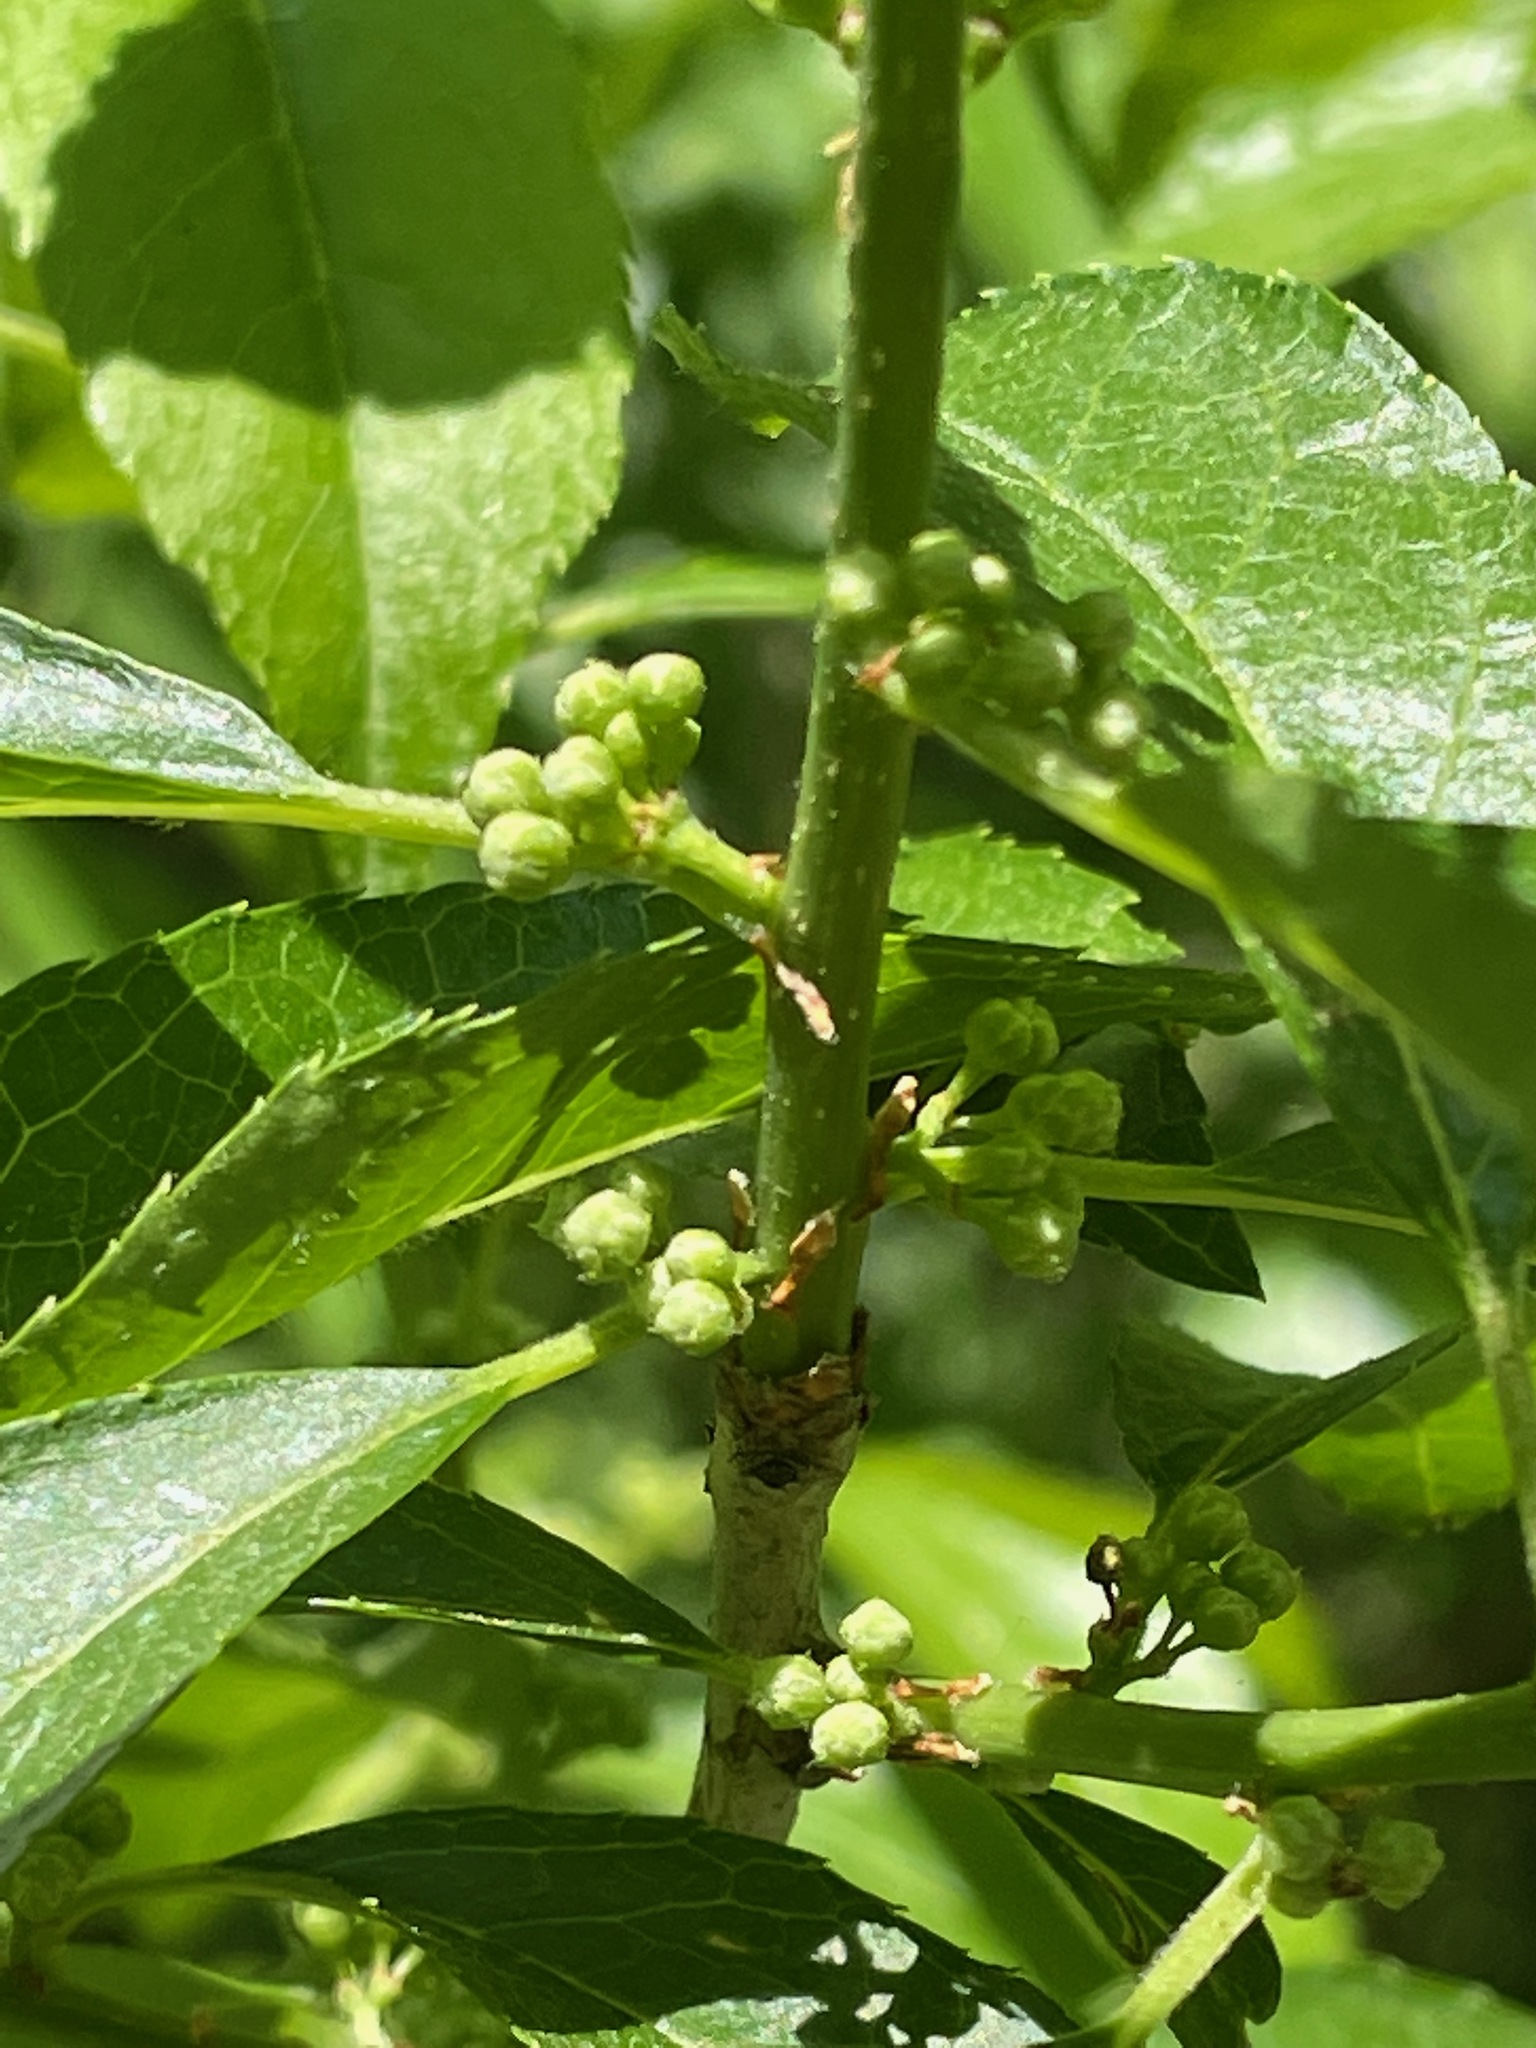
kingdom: Plantae
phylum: Tracheophyta
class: Magnoliopsida
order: Aquifoliales
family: Aquifoliaceae
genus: Ilex
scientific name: Ilex verticillata
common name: Virginia winterberry
